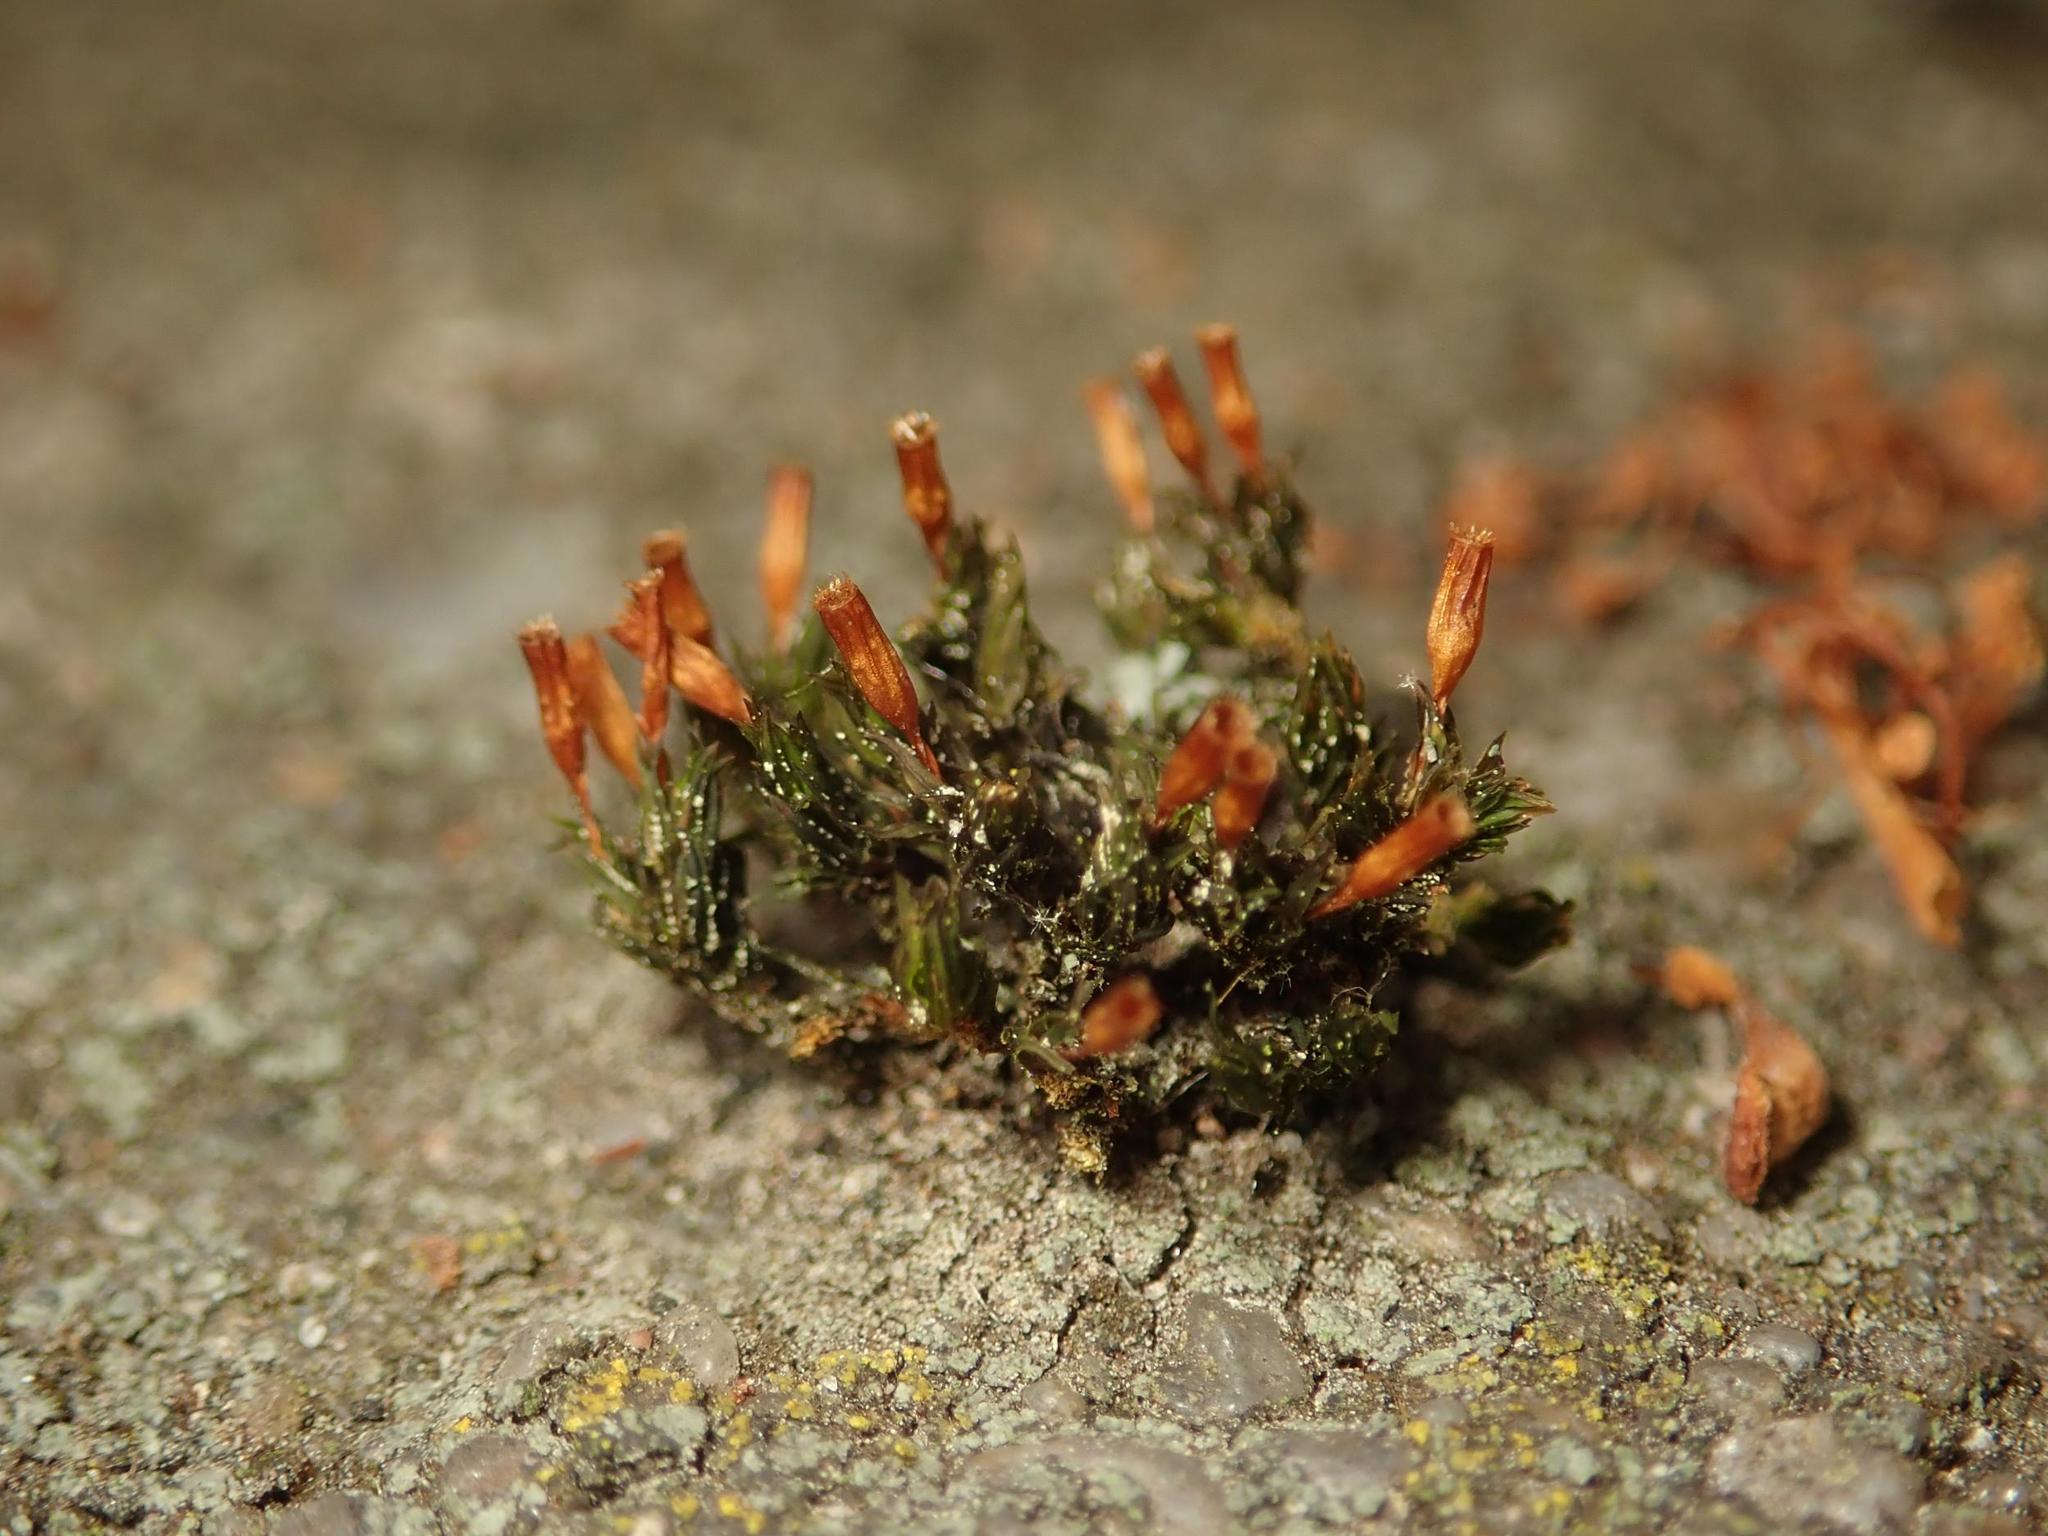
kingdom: Plantae
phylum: Bryophyta
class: Bryopsida
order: Orthotrichales
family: Orthotrichaceae
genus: Orthotrichum
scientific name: Orthotrichum anomalum
